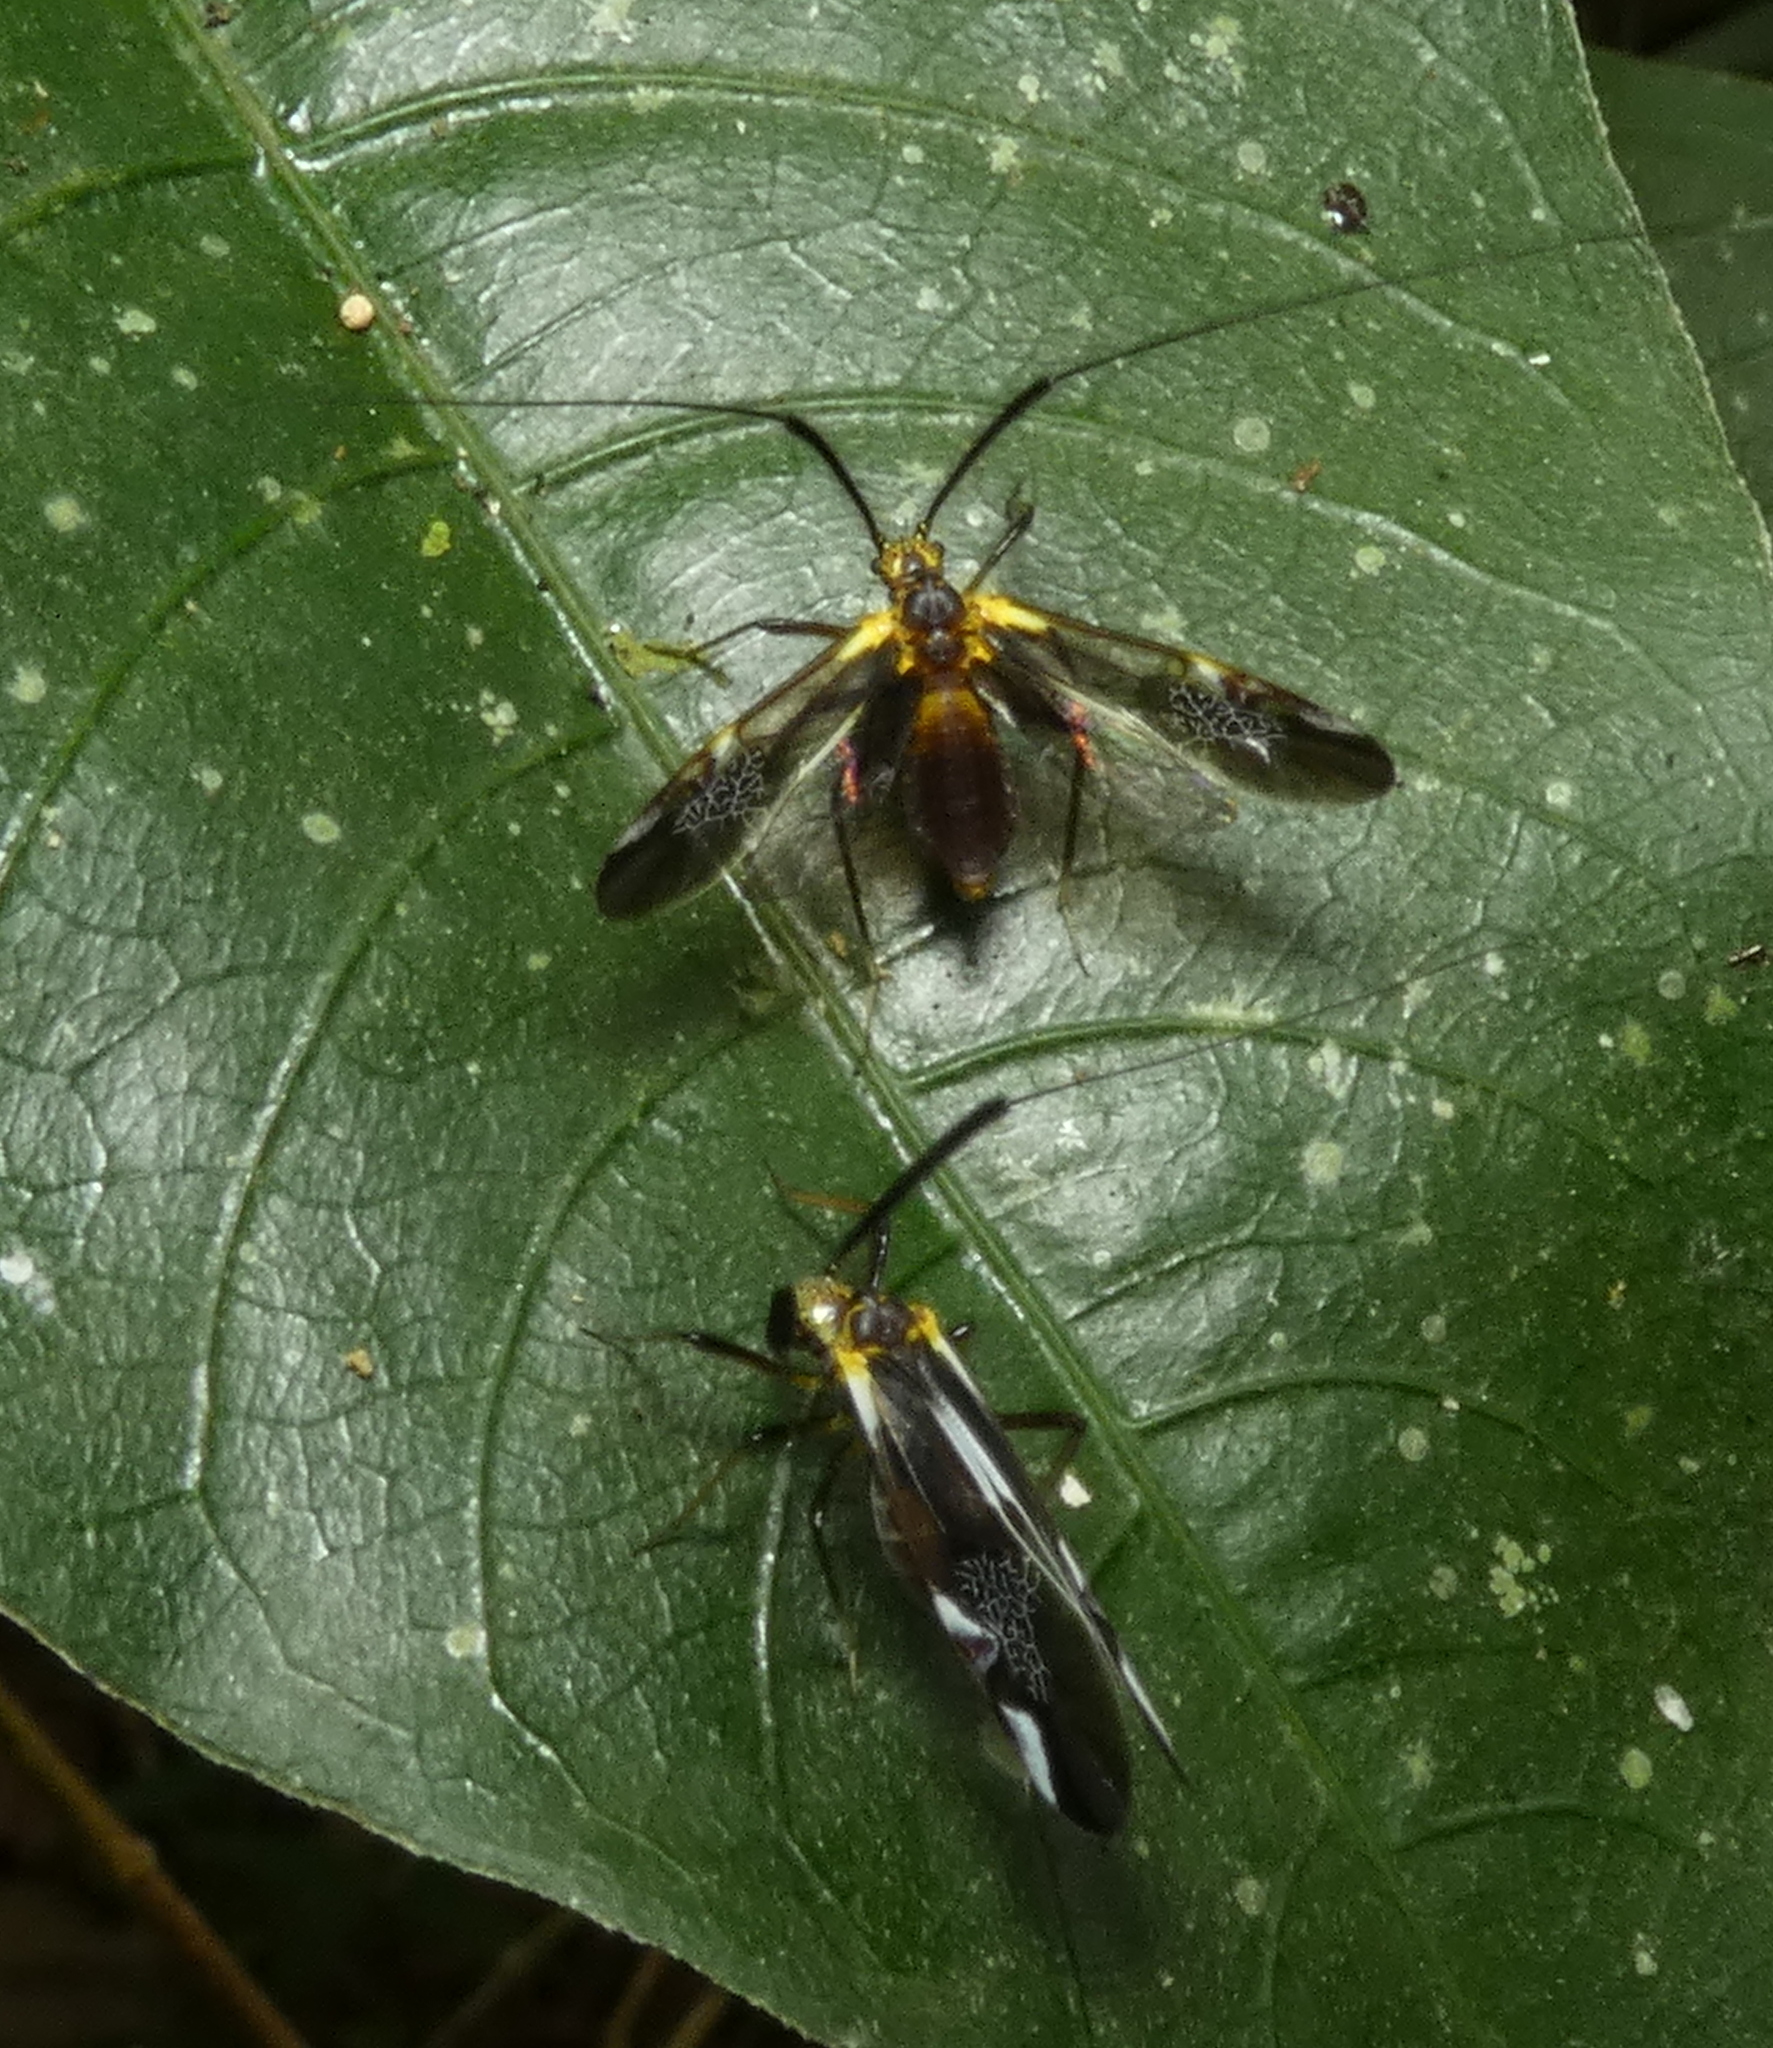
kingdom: Animalia
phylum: Arthropoda
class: Insecta
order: Psocodea
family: Psocidae
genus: Dictyopsocus
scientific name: Dictyopsocus pennicornis
